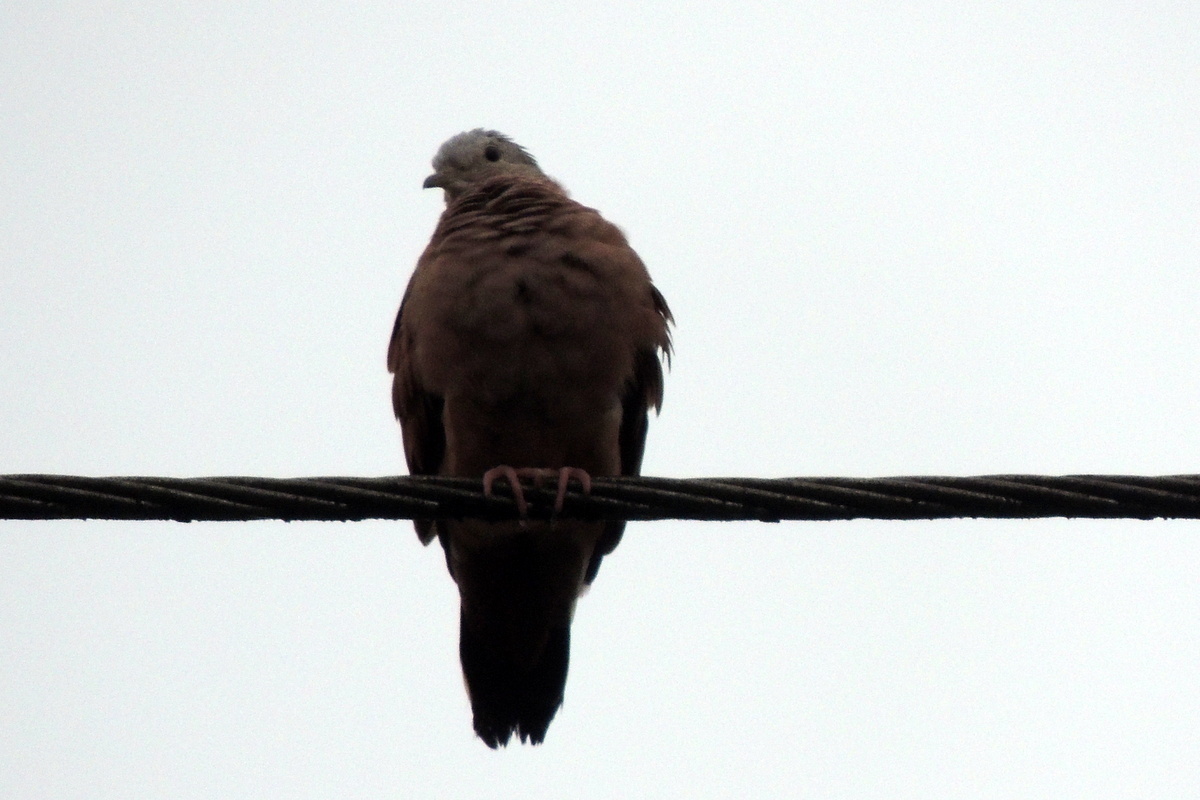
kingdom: Animalia
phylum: Chordata
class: Aves
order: Columbiformes
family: Columbidae
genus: Columbina
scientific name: Columbina talpacoti
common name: Ruddy ground dove
